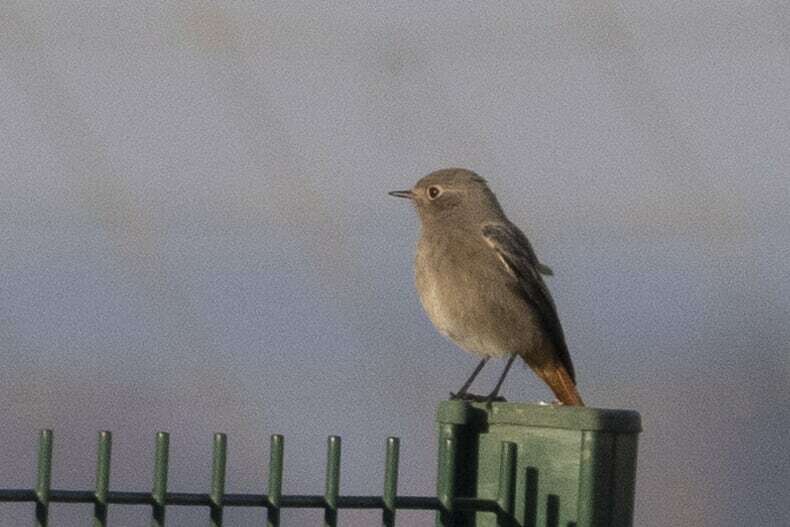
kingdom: Animalia
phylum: Chordata
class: Aves
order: Passeriformes
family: Muscicapidae
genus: Phoenicurus
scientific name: Phoenicurus ochruros
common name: Black redstart
